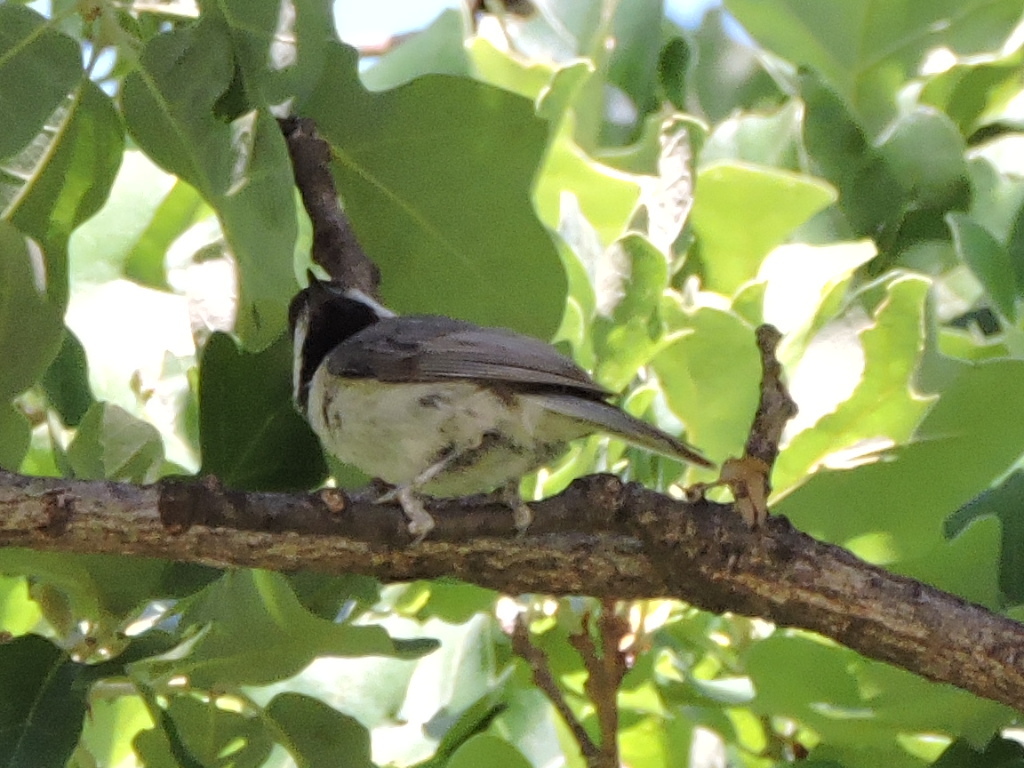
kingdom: Animalia
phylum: Chordata
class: Aves
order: Passeriformes
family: Paridae
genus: Poecile
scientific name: Poecile carolinensis
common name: Carolina chickadee
